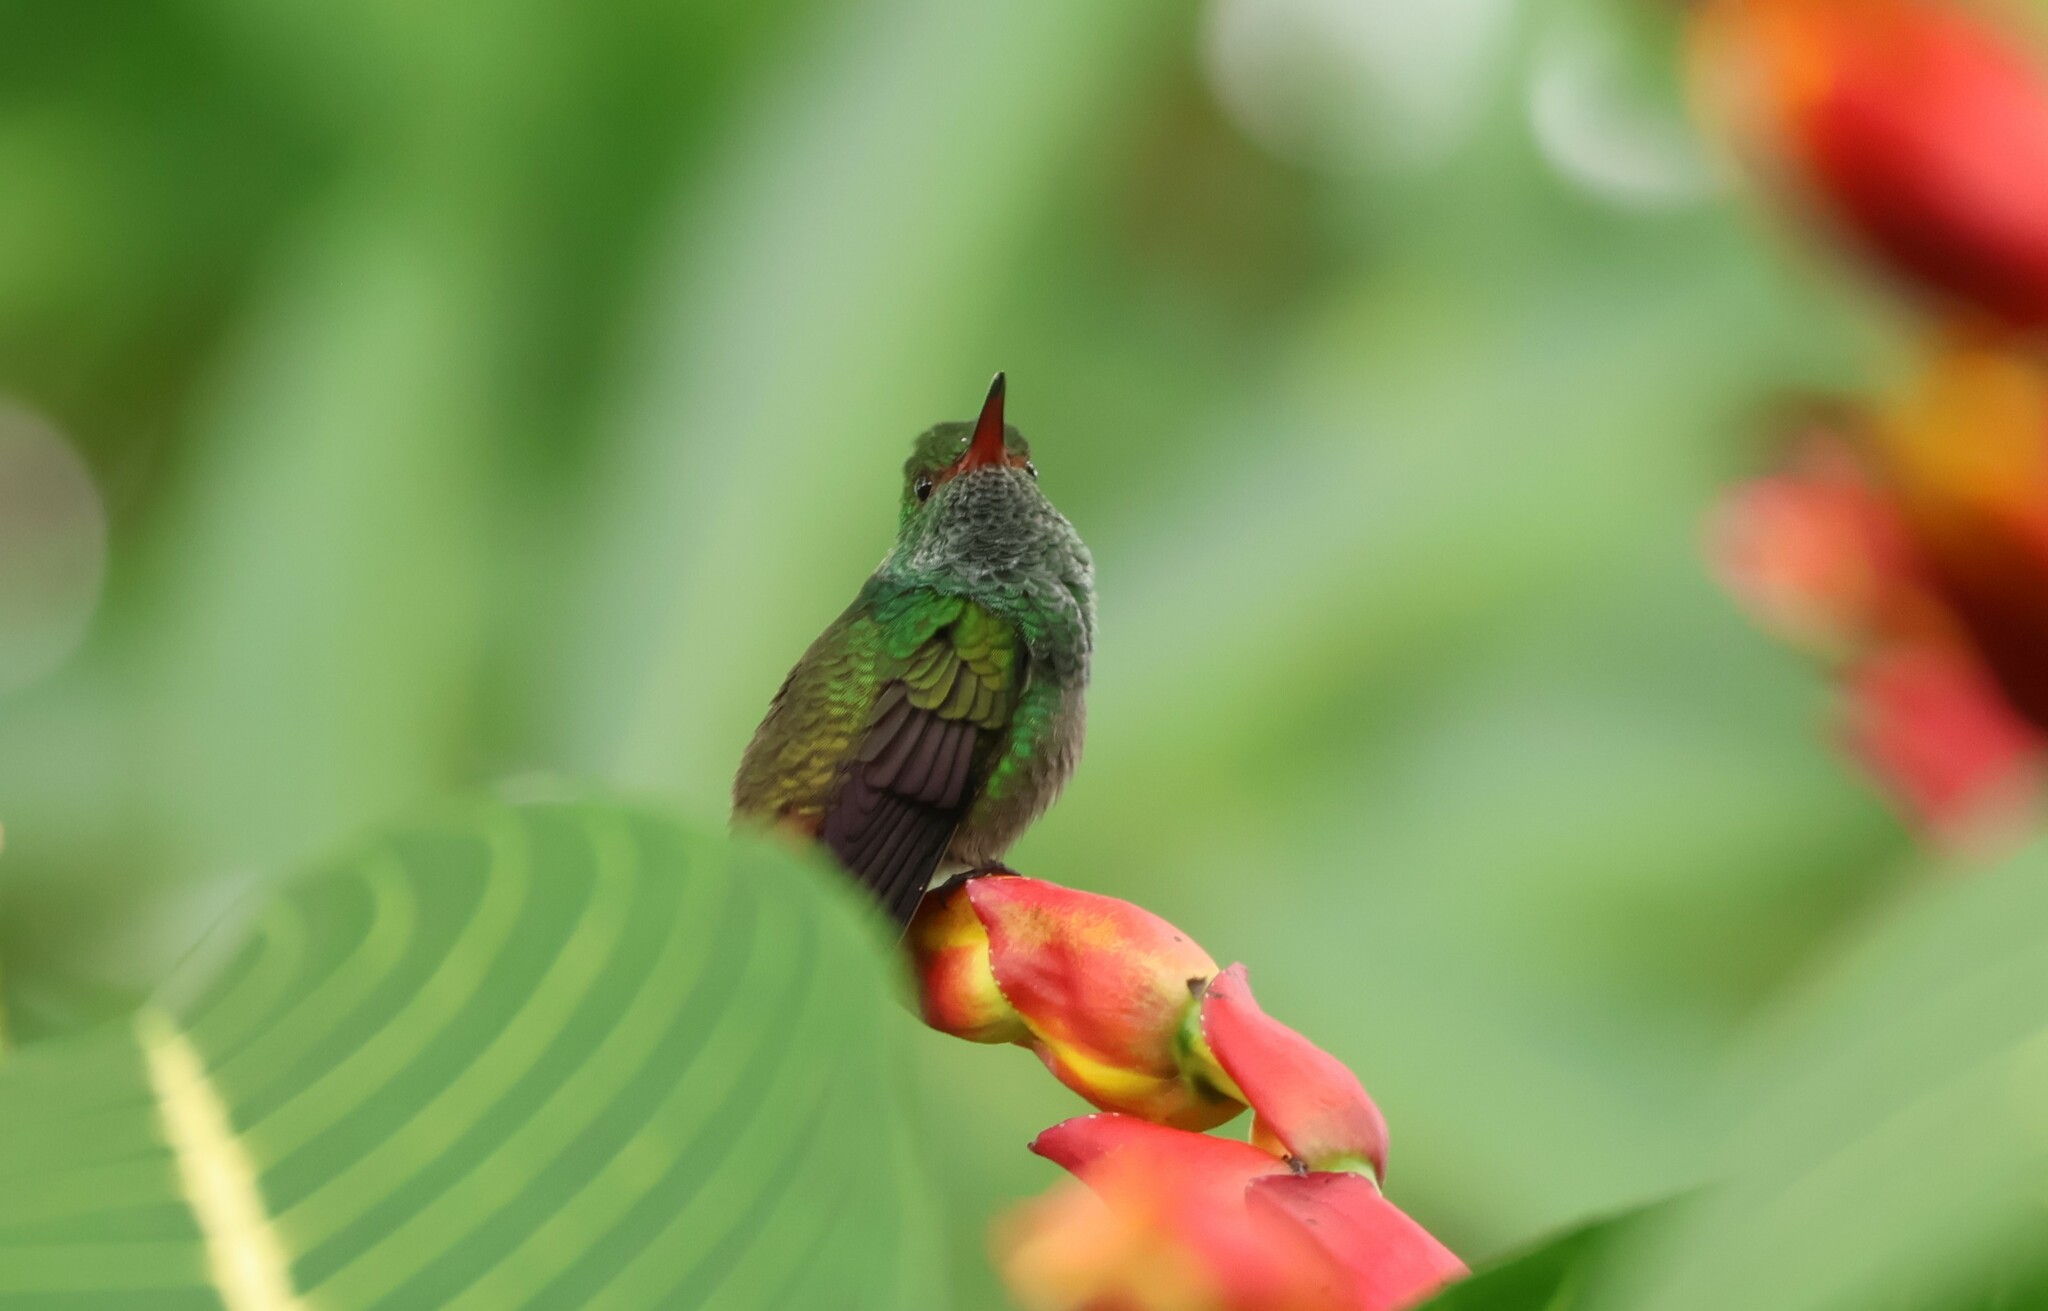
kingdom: Animalia
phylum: Chordata
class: Aves
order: Apodiformes
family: Trochilidae
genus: Amazilia
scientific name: Amazilia tzacatl
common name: Rufous-tailed hummingbird
